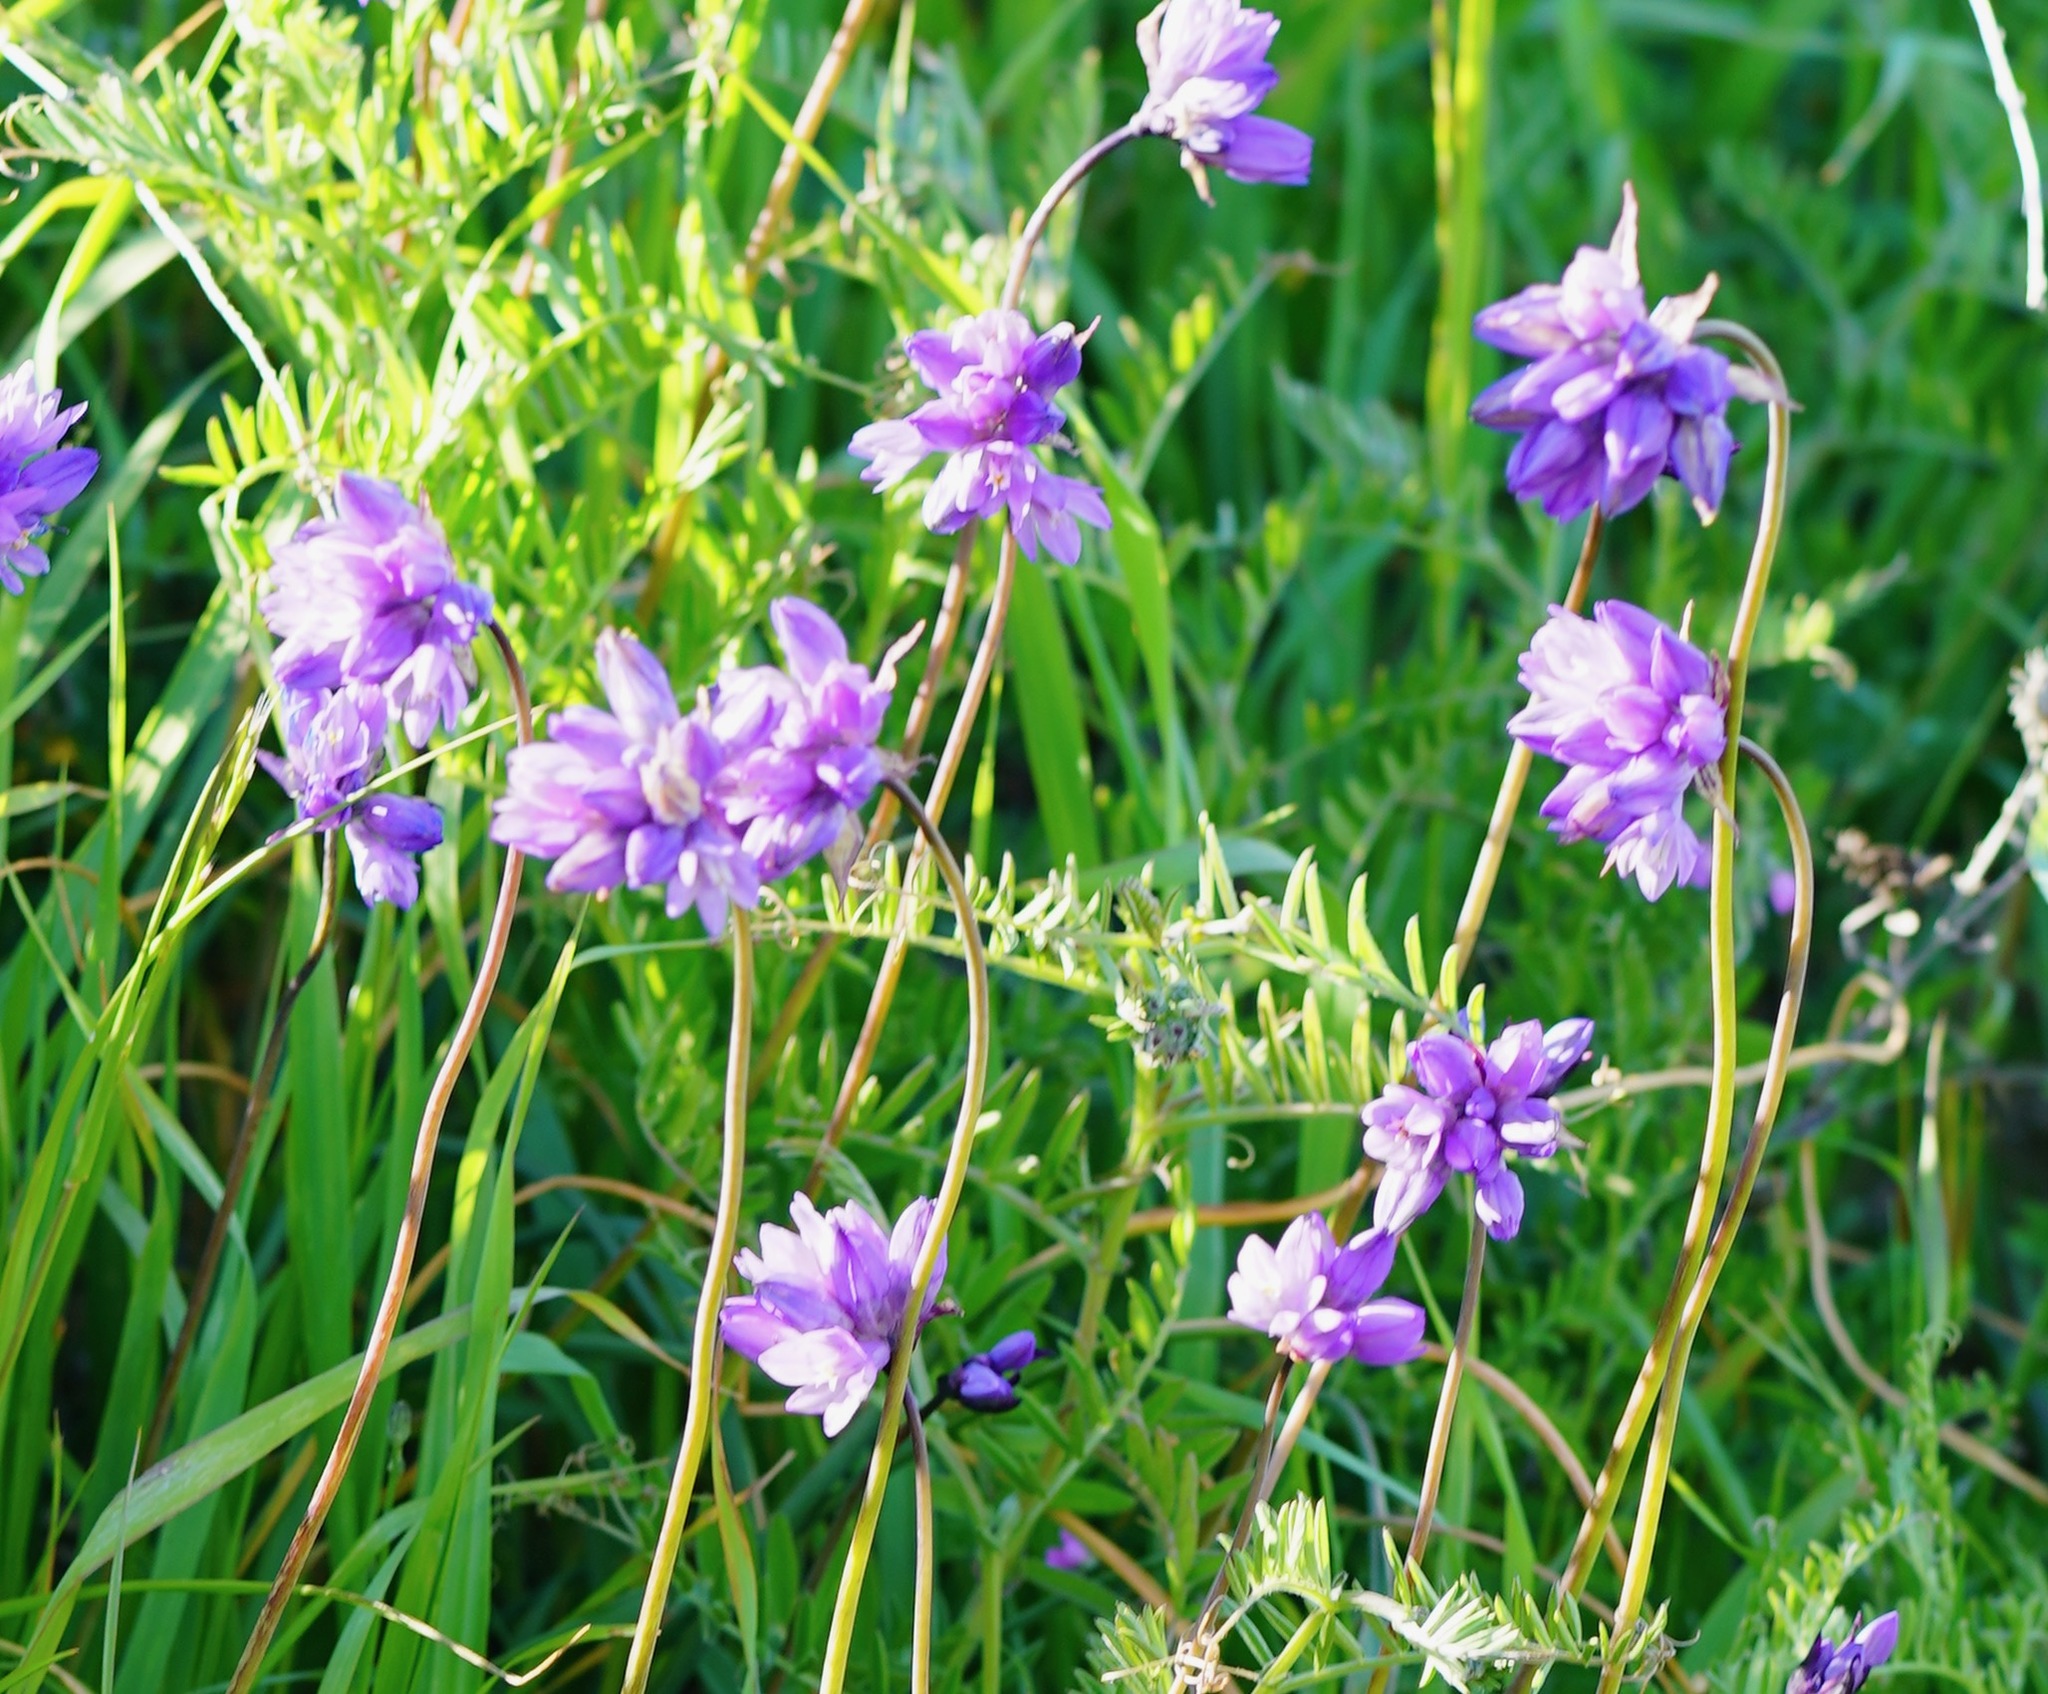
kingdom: Plantae
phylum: Tracheophyta
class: Liliopsida
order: Asparagales
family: Asparagaceae
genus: Dipterostemon
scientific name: Dipterostemon capitatus
